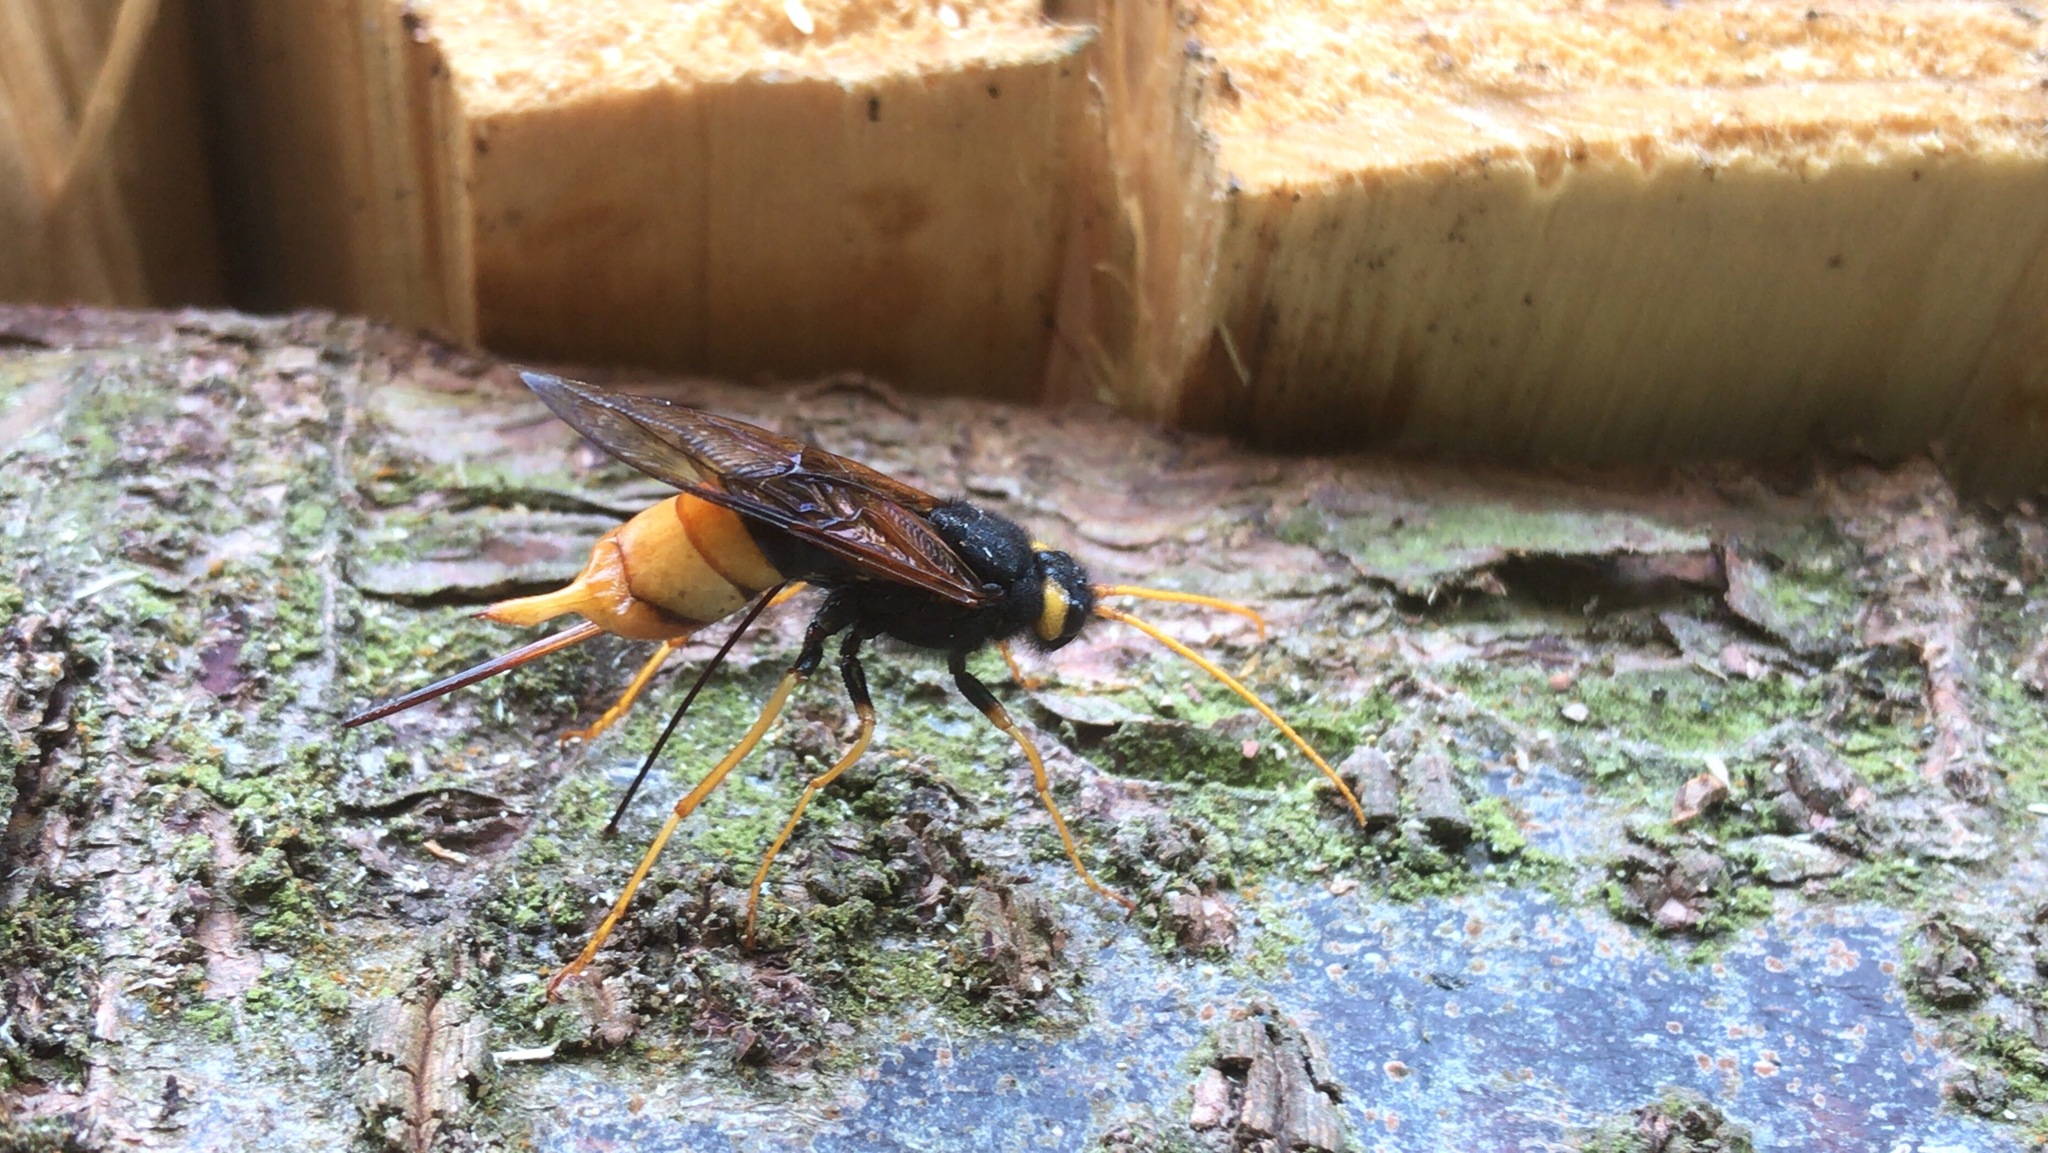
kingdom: Animalia
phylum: Arthropoda
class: Insecta
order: Hymenoptera
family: Siricidae
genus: Urocerus
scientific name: Urocerus gigas
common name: Giant woodwasp
